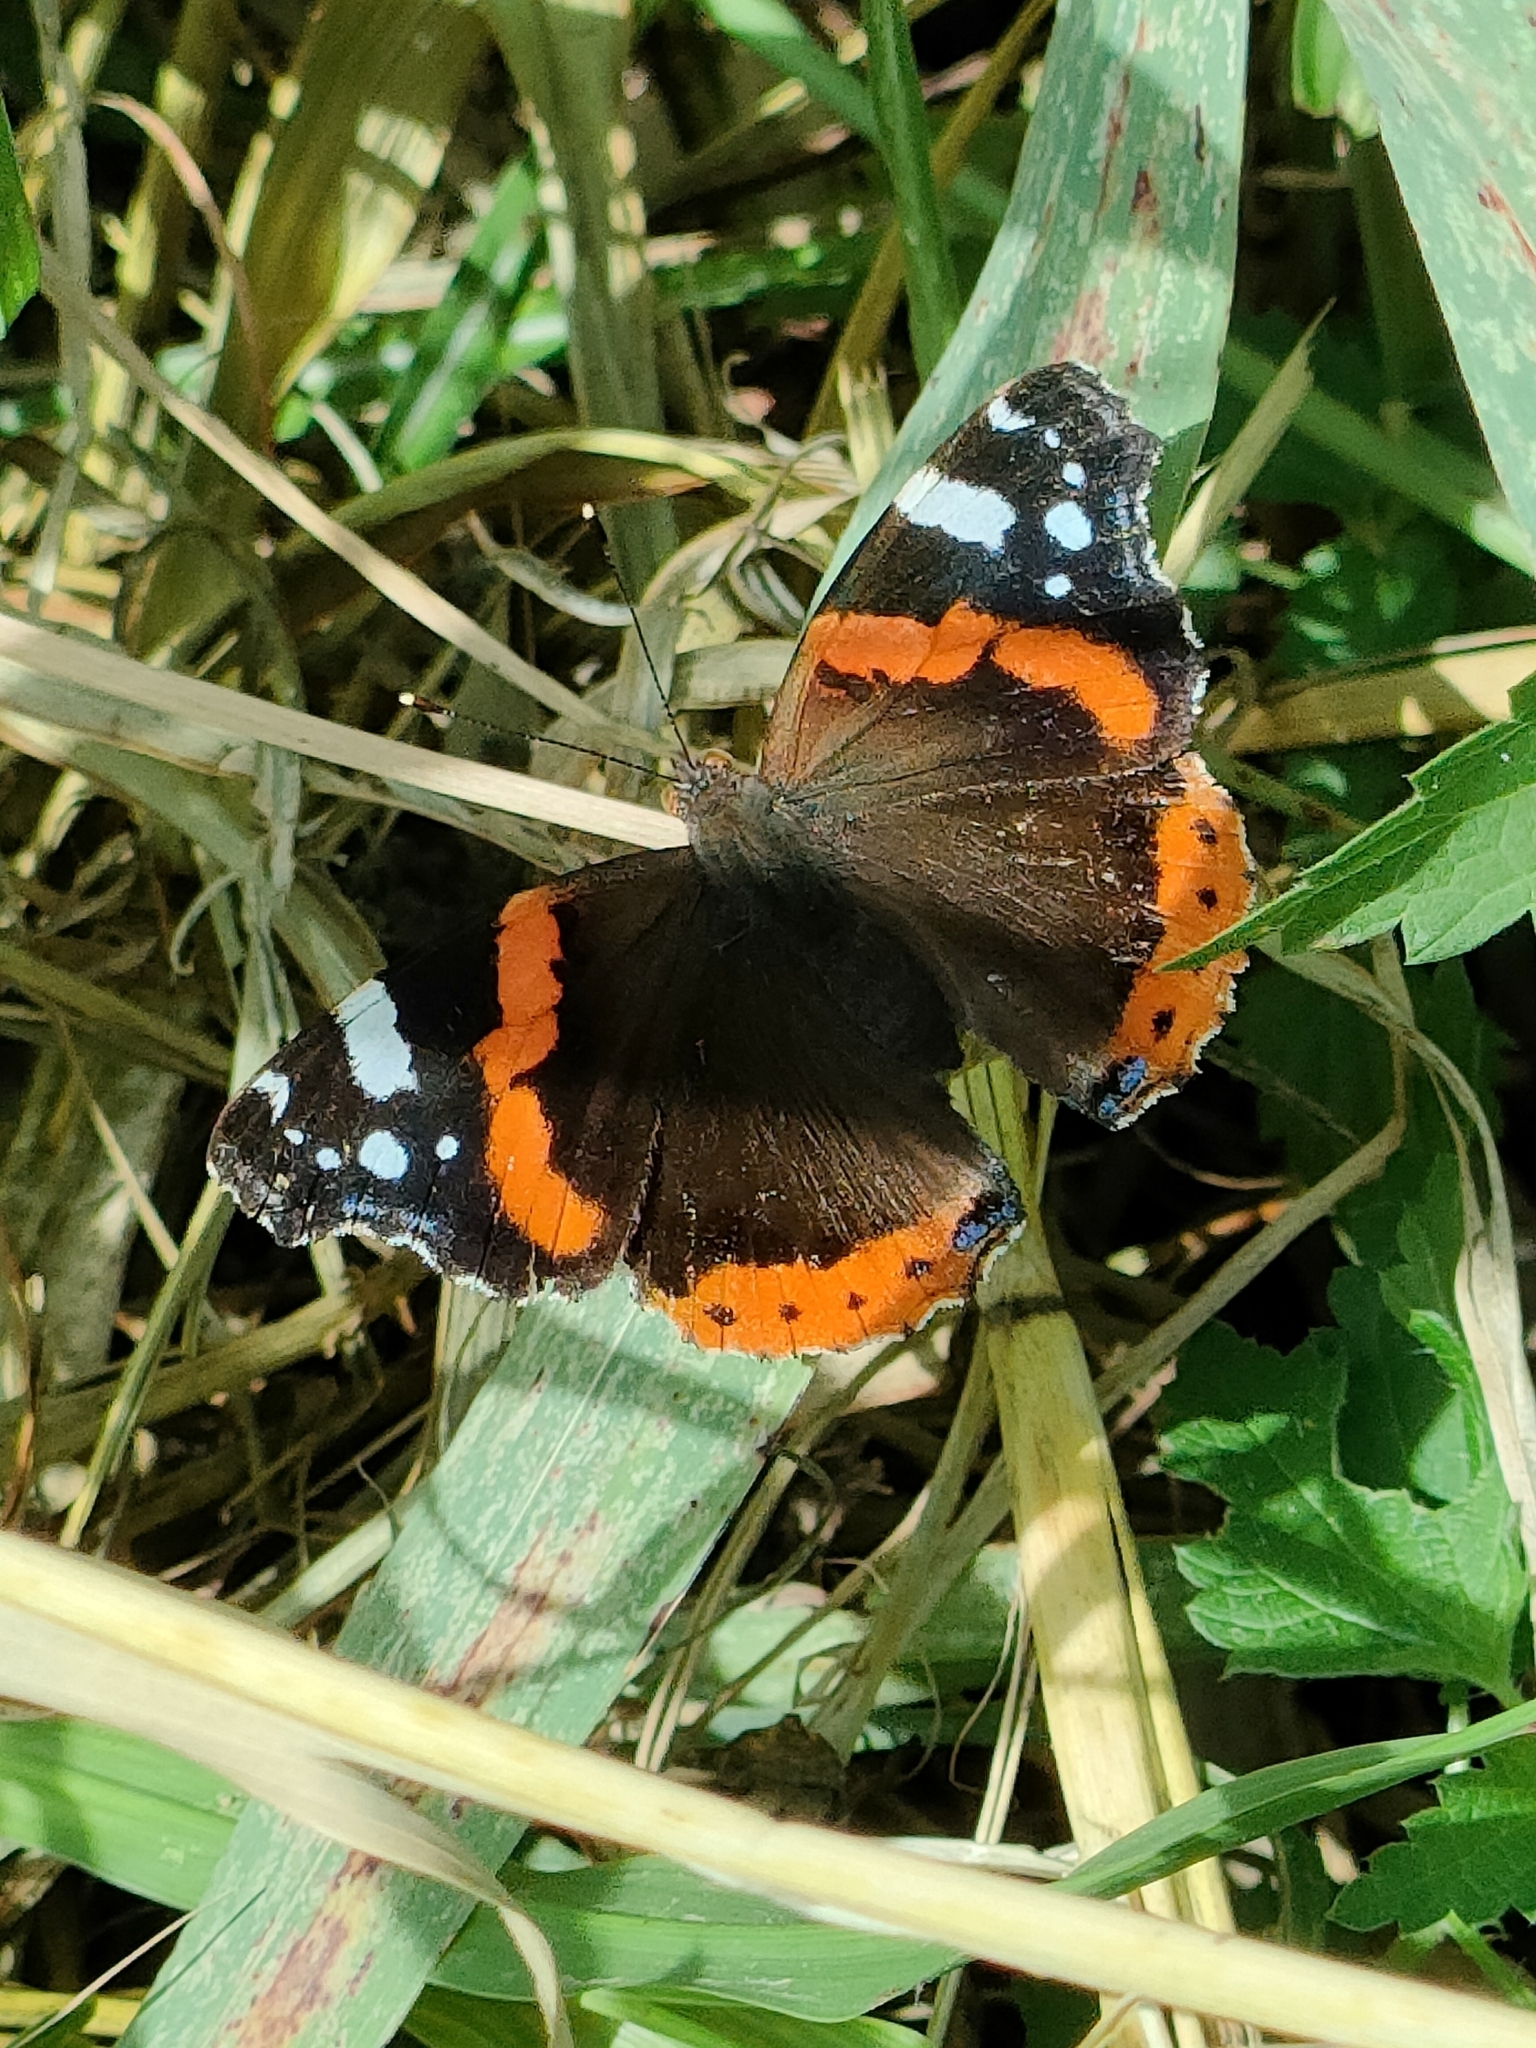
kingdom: Animalia
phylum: Arthropoda
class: Insecta
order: Lepidoptera
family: Nymphalidae
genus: Vanessa
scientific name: Vanessa atalanta
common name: Red admiral
